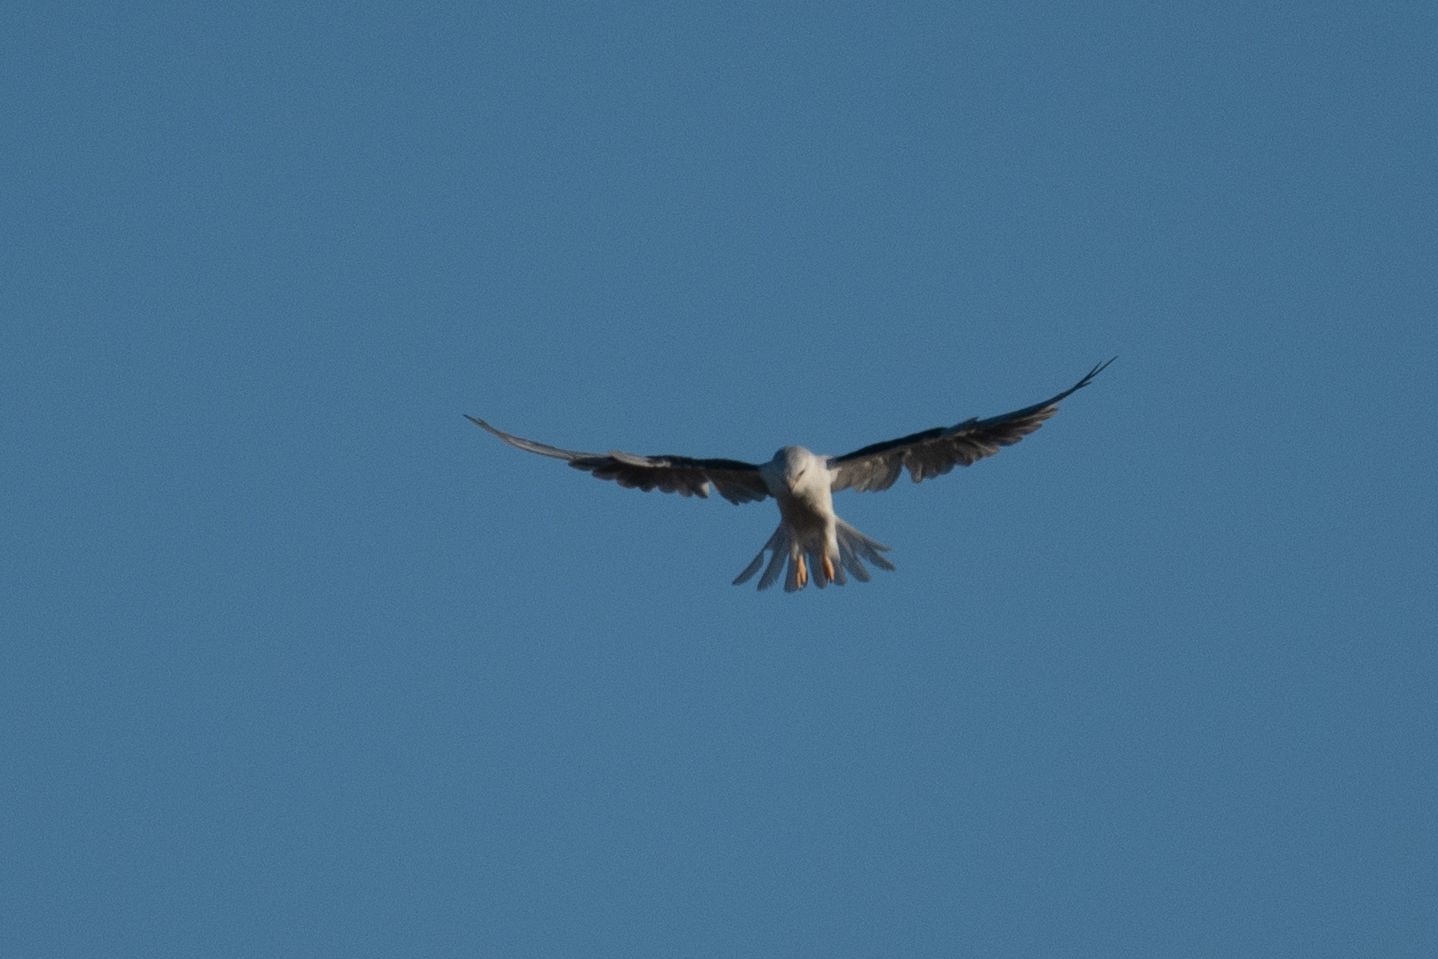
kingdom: Animalia
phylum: Chordata
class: Aves
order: Accipitriformes
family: Accipitridae
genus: Elanus
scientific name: Elanus leucurus
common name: White-tailed kite
